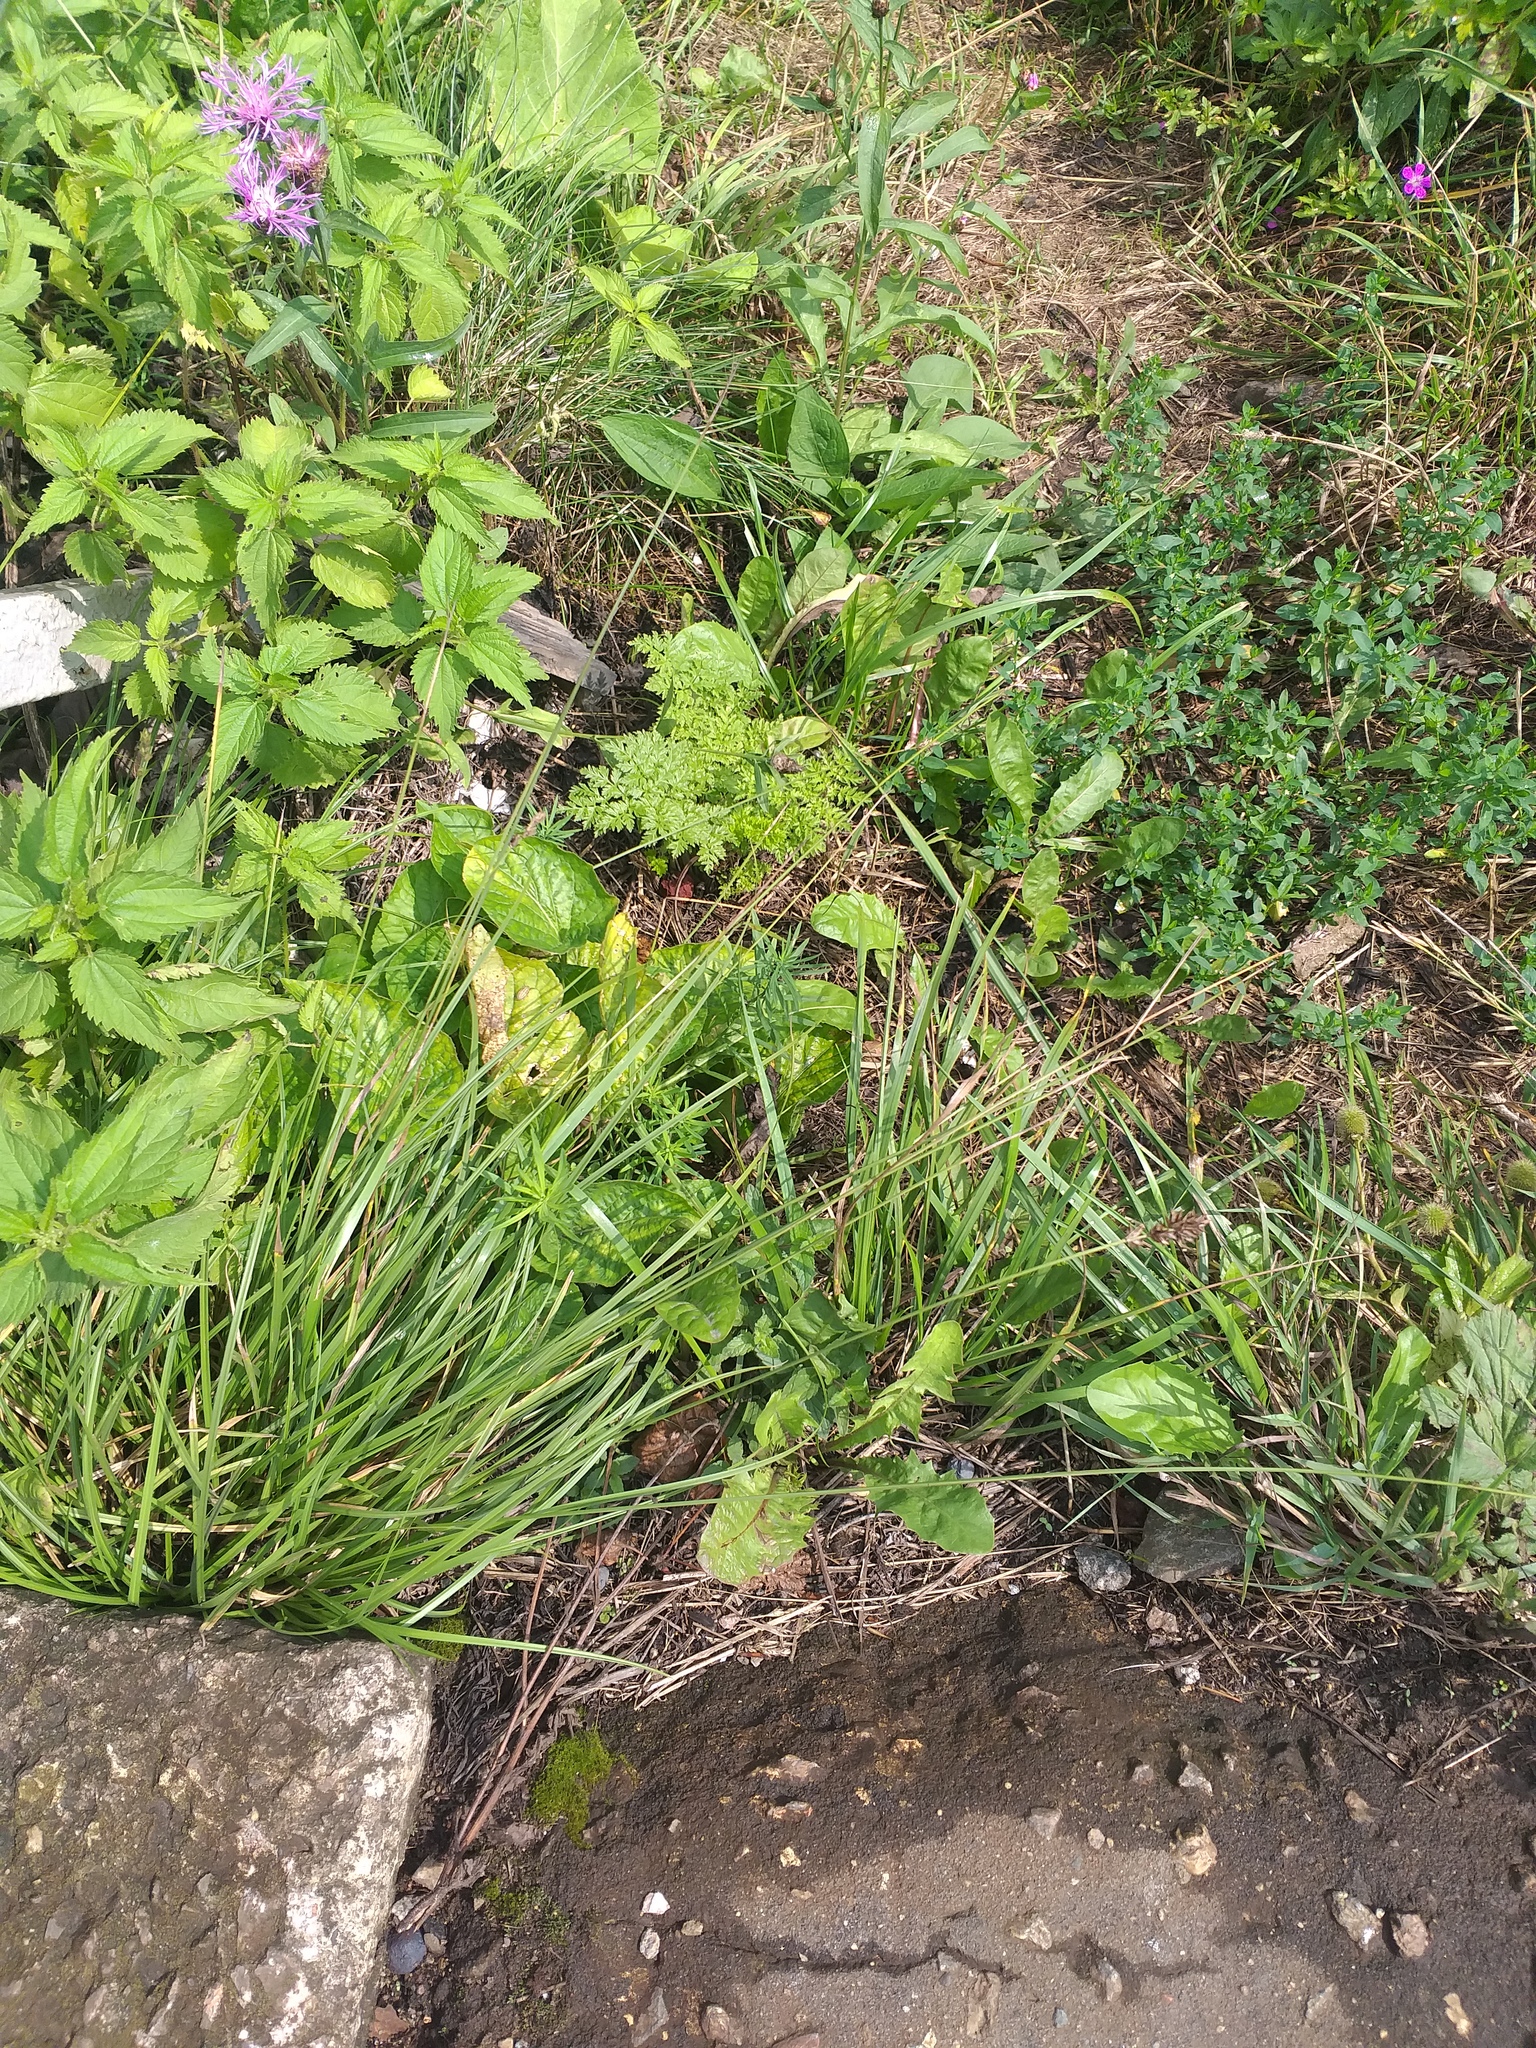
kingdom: Plantae
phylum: Tracheophyta
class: Magnoliopsida
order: Malpighiales
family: Violaceae
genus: Viola
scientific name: Viola hirta
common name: Hairy violet
